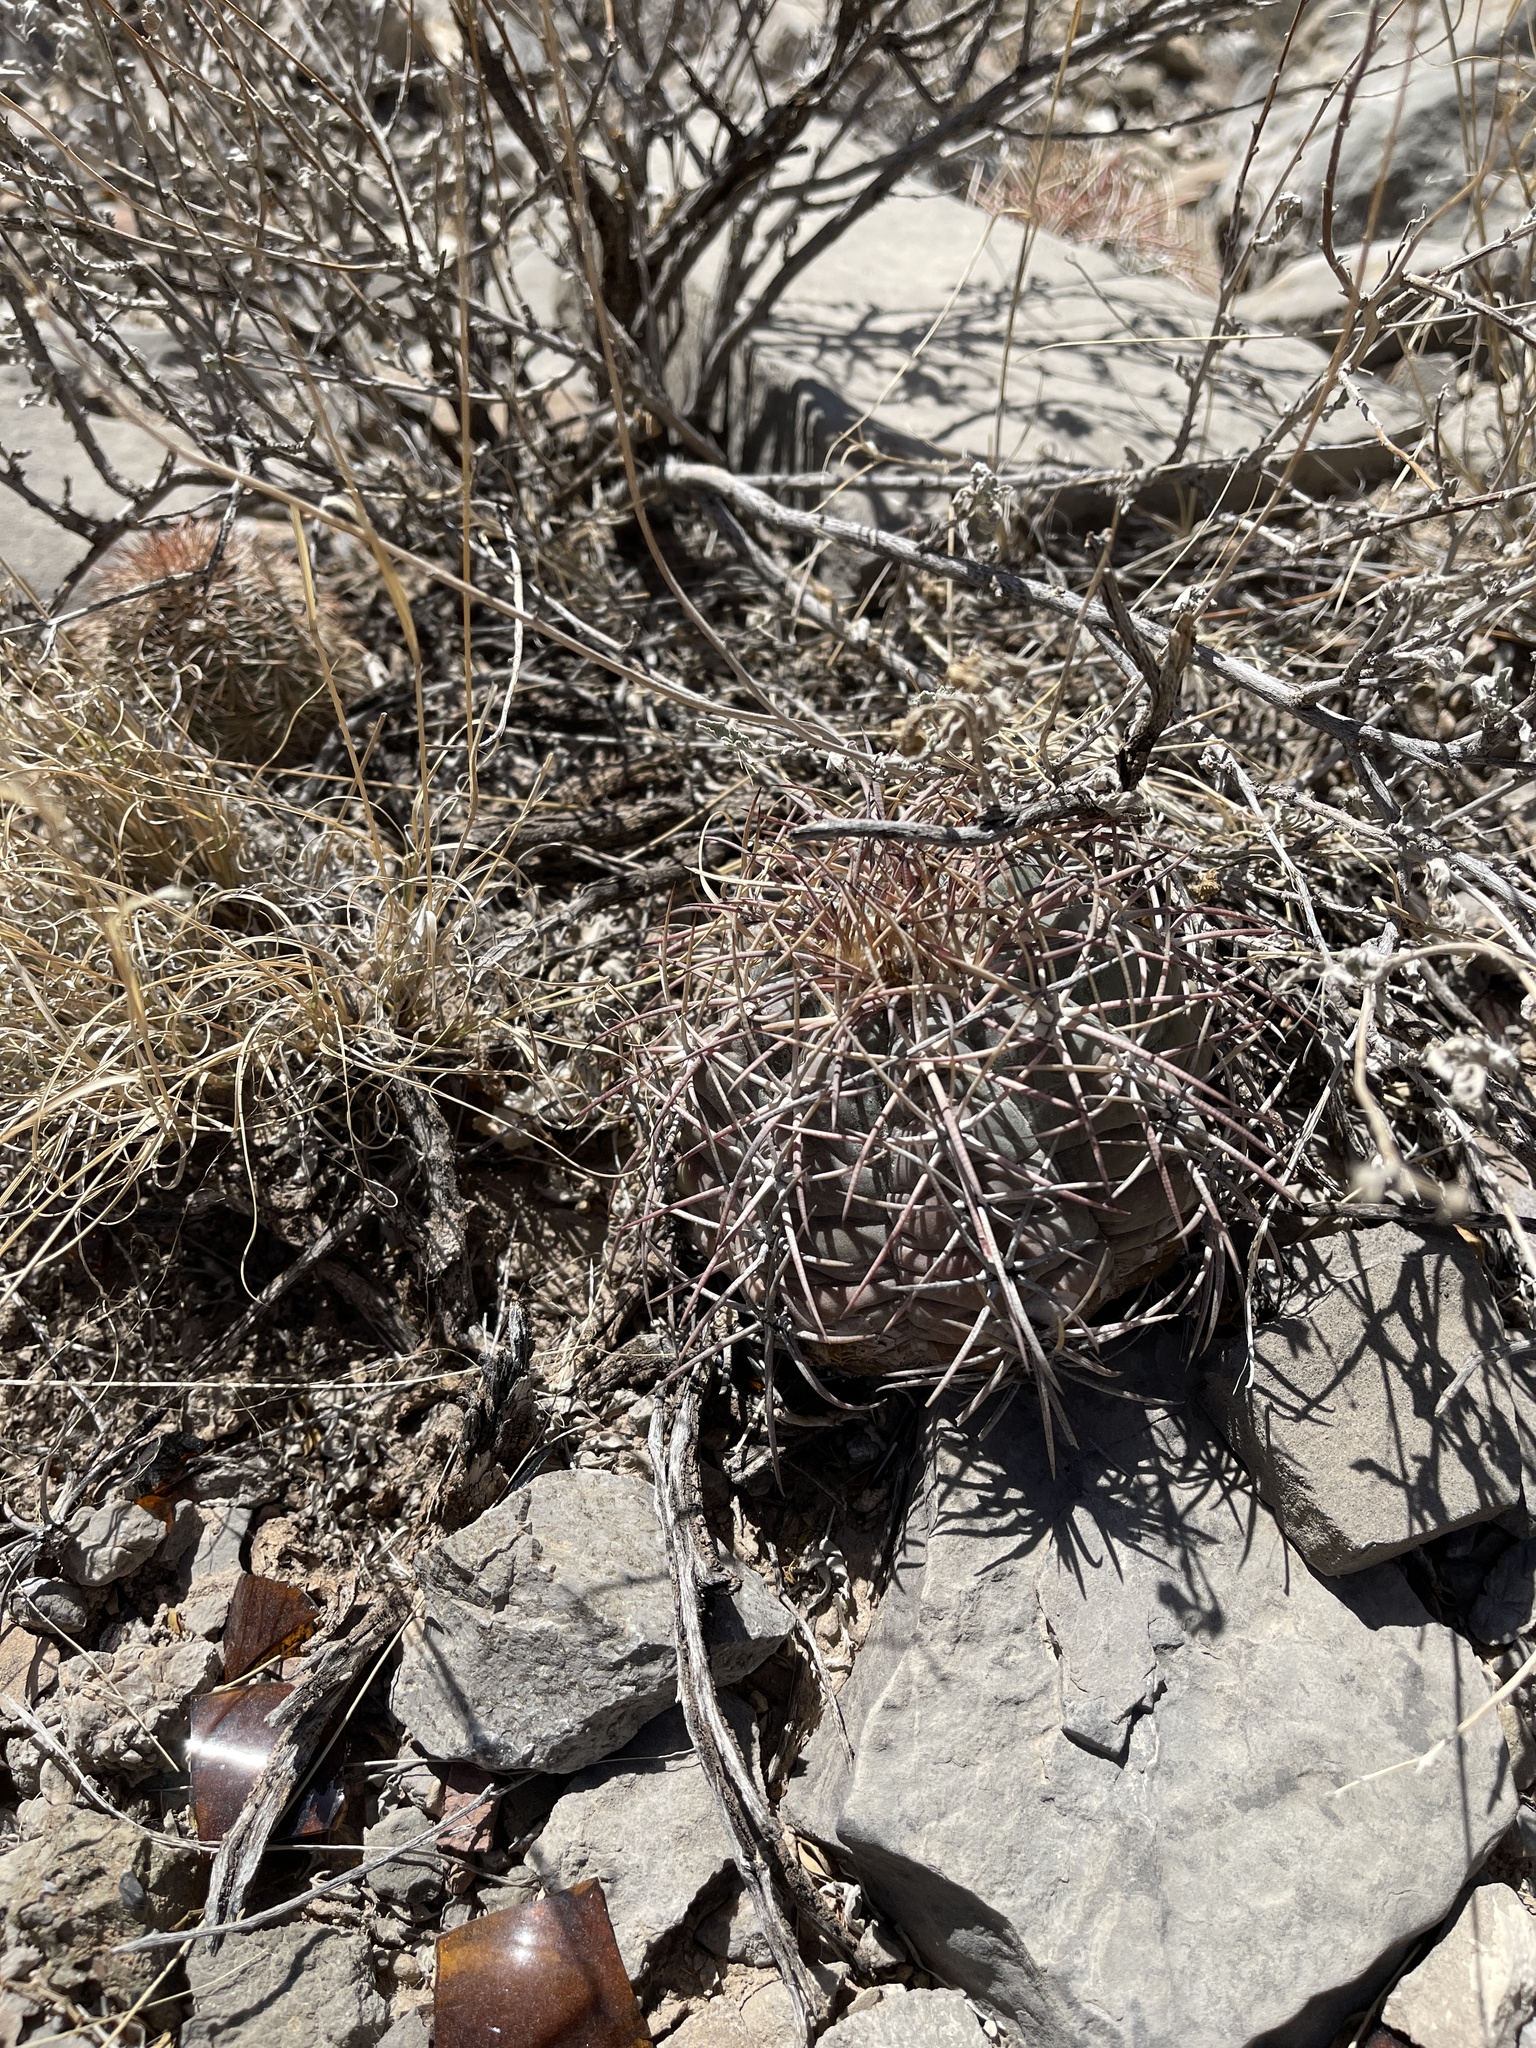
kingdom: Plantae
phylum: Tracheophyta
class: Magnoliopsida
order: Caryophyllales
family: Cactaceae
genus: Echinocactus
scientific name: Echinocactus horizonthalonius
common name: Devilshead
